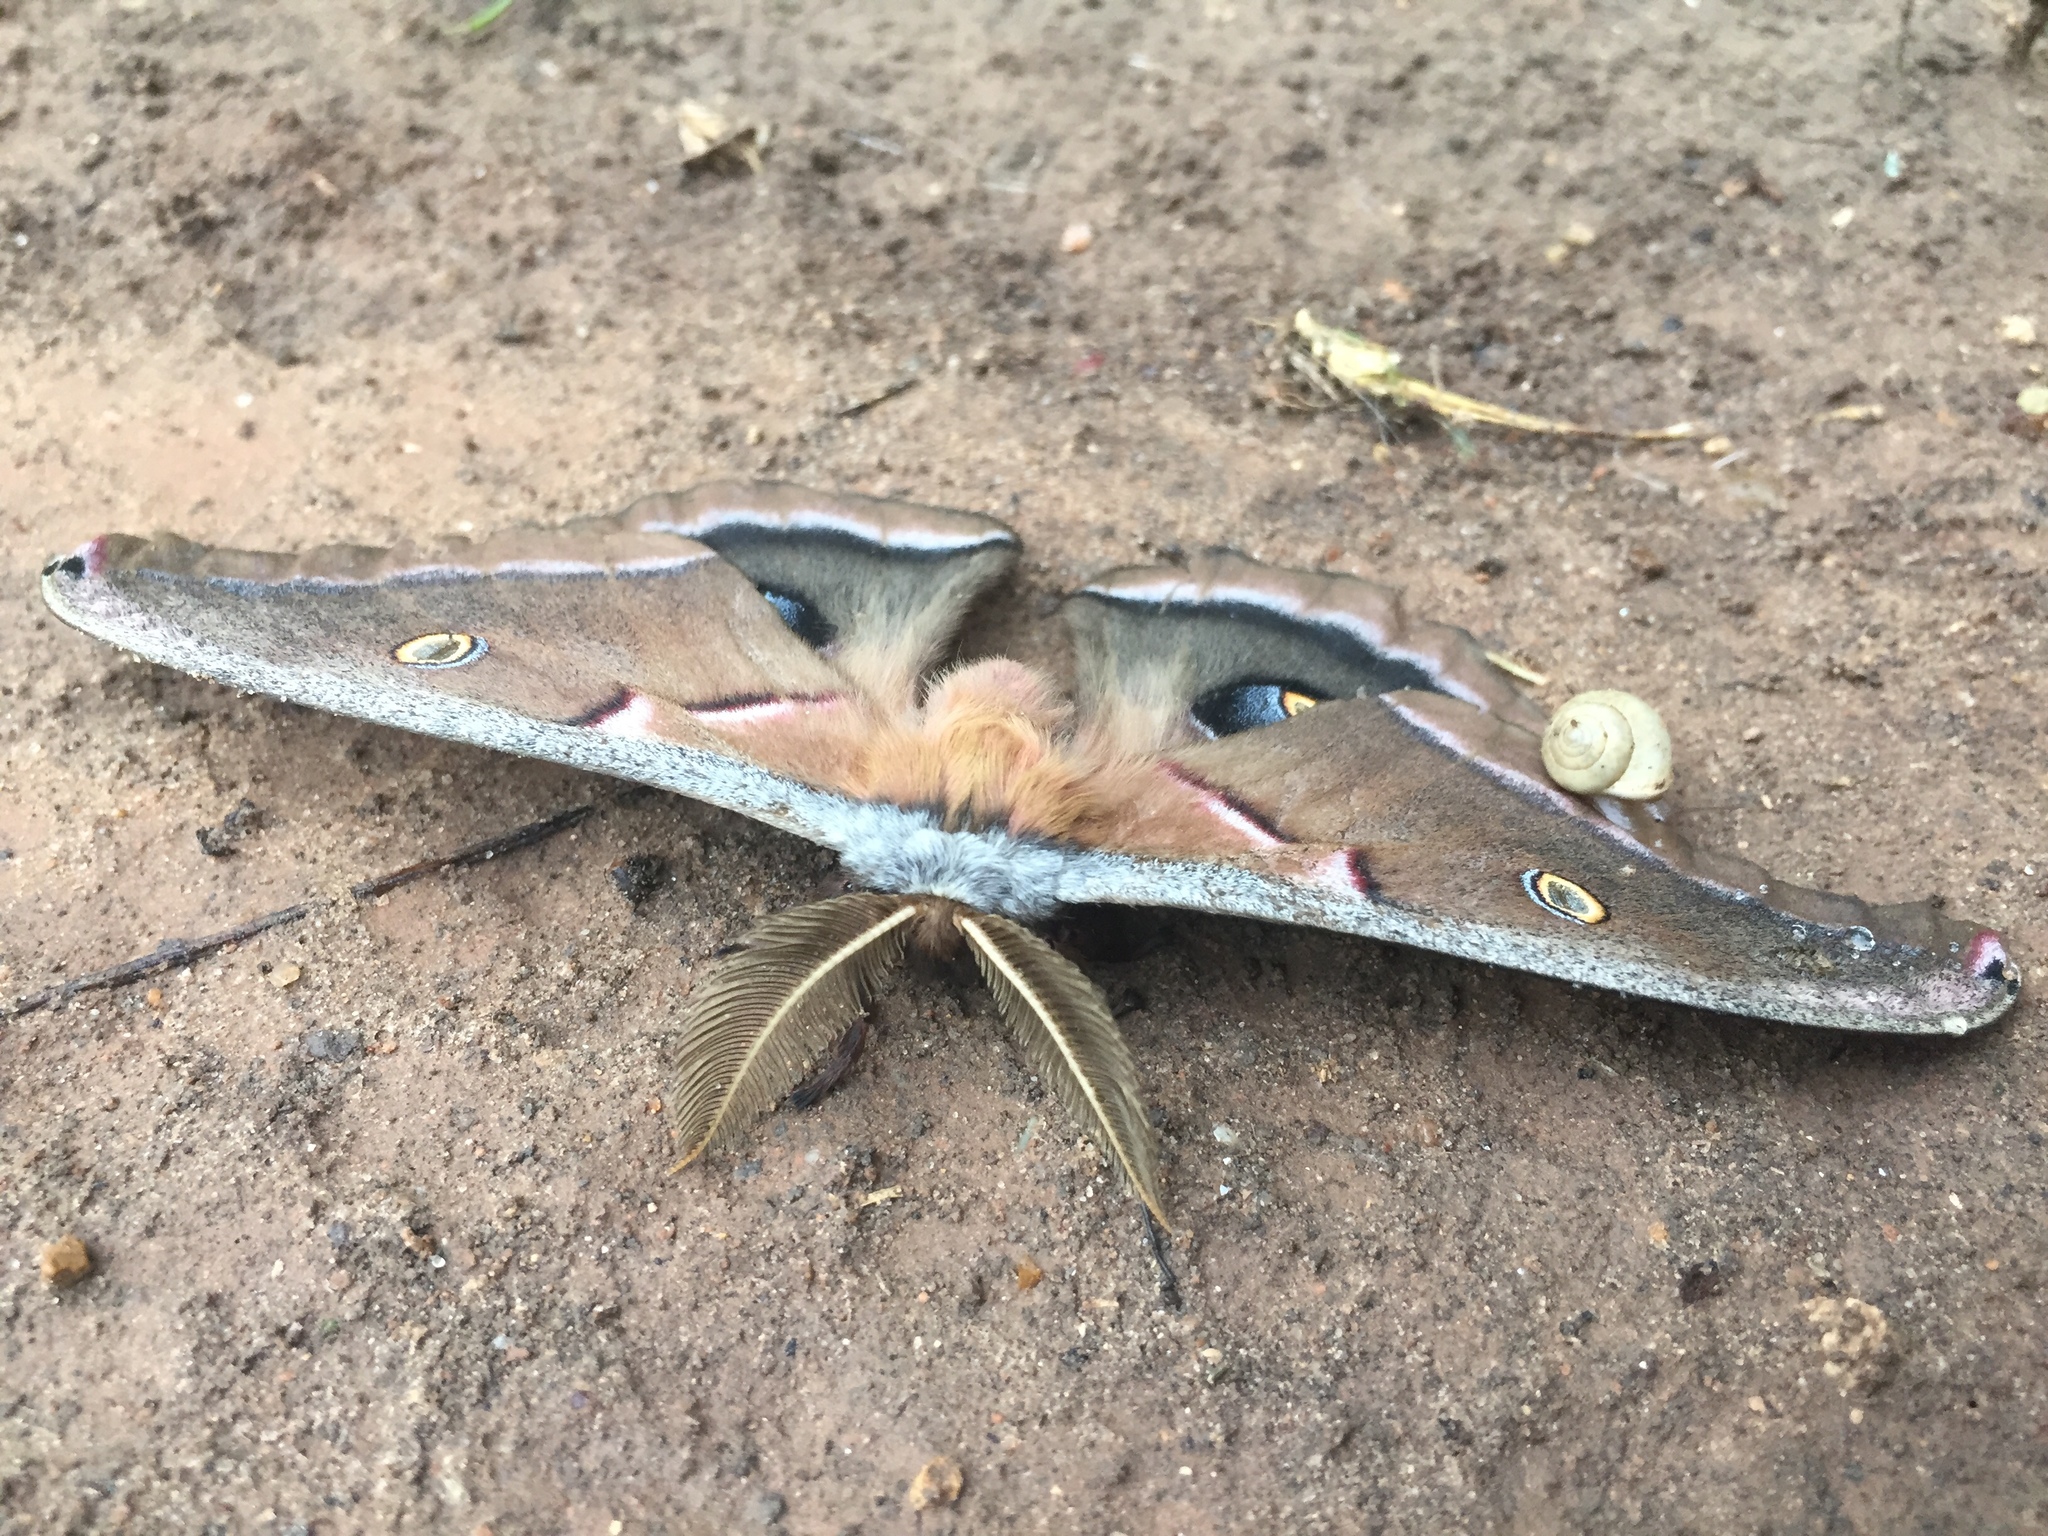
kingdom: Animalia
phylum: Arthropoda
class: Insecta
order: Lepidoptera
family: Saturniidae
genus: Antheraea
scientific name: Antheraea polyphemus
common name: Polyphemus moth
